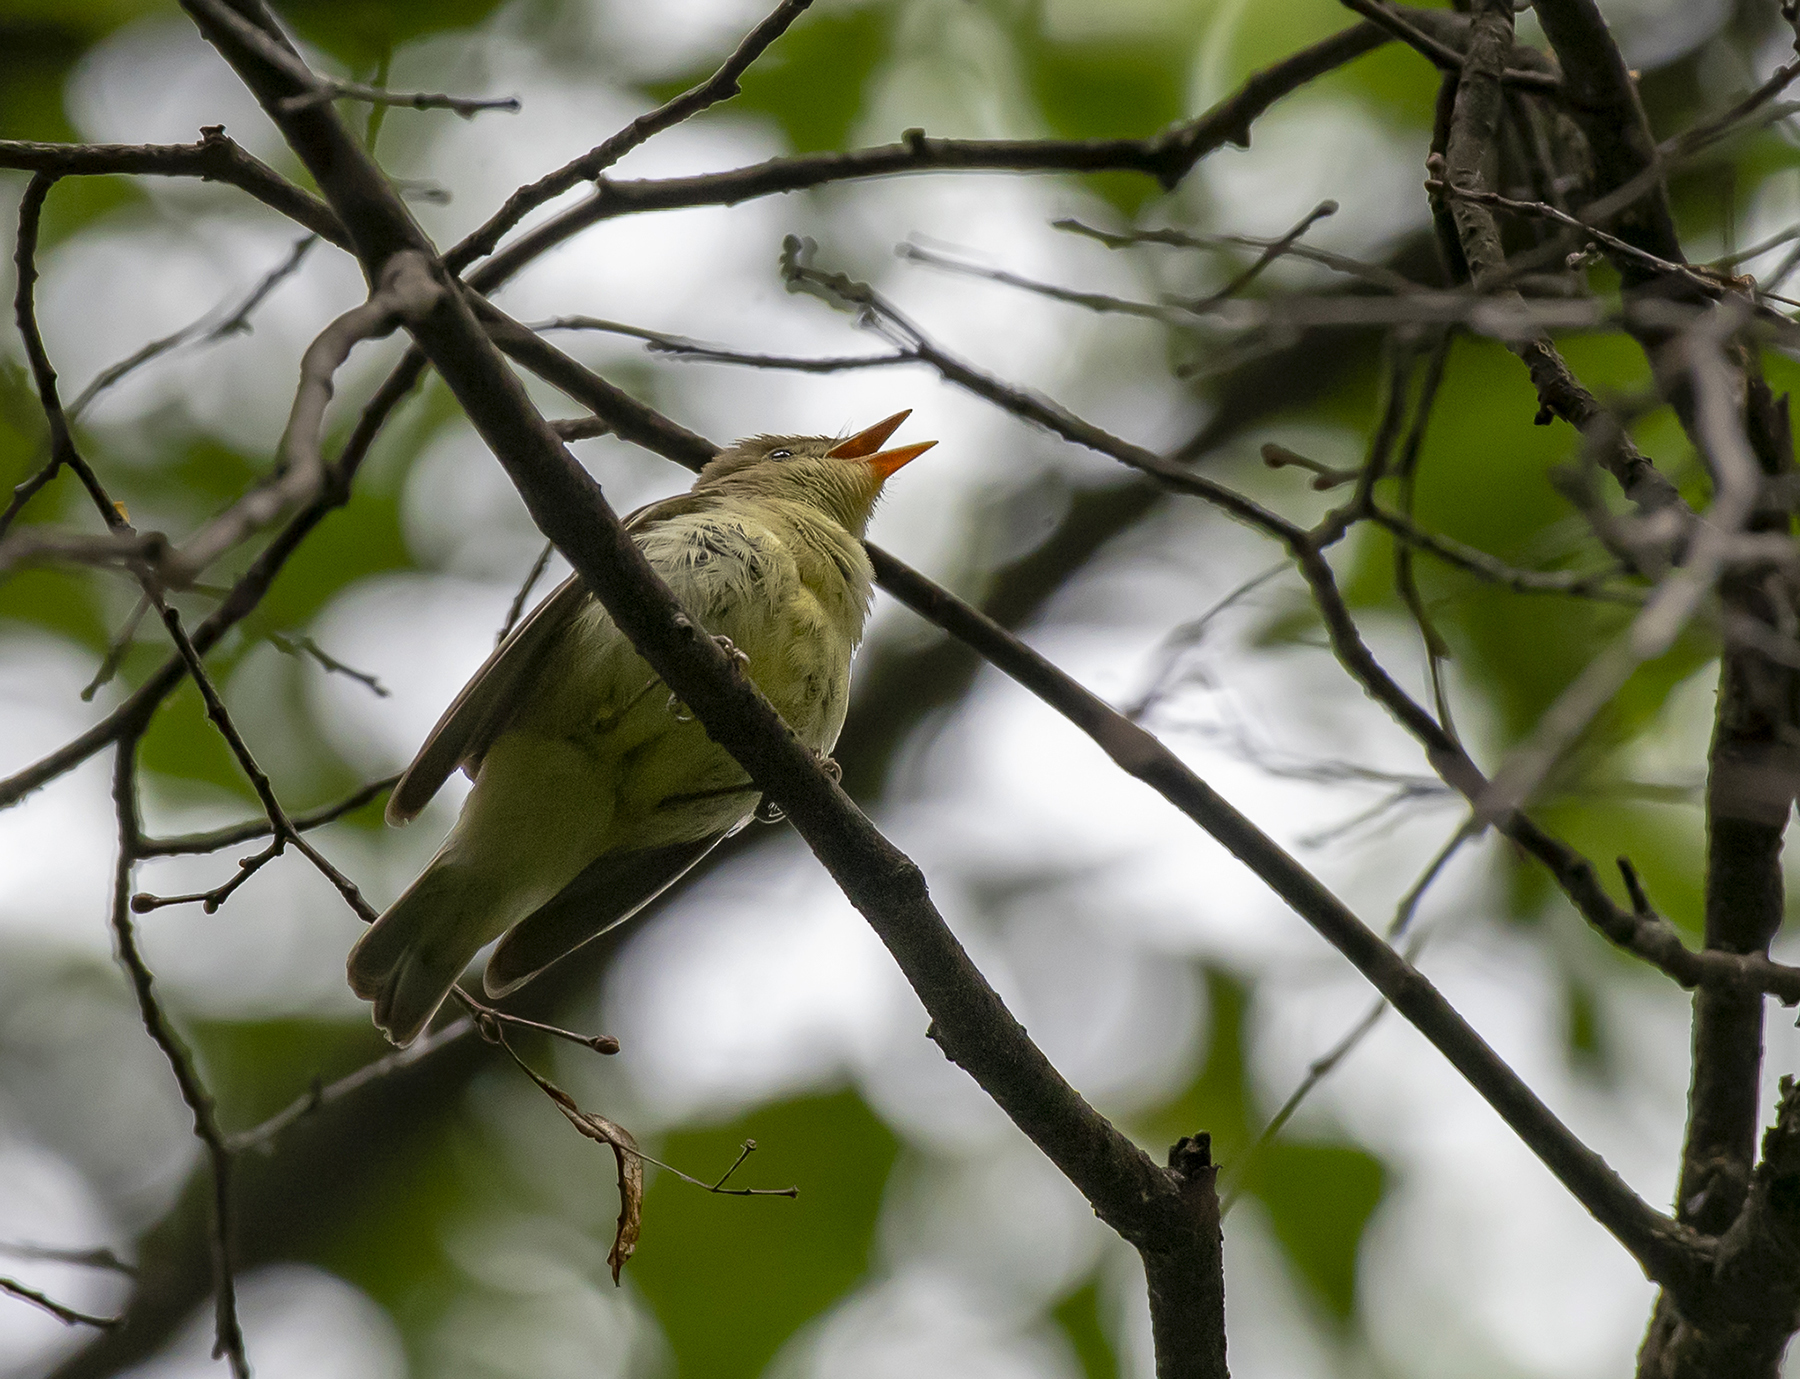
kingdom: Animalia
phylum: Chordata
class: Aves
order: Passeriformes
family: Acrocephalidae
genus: Hippolais
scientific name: Hippolais icterina
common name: Icterine warbler
